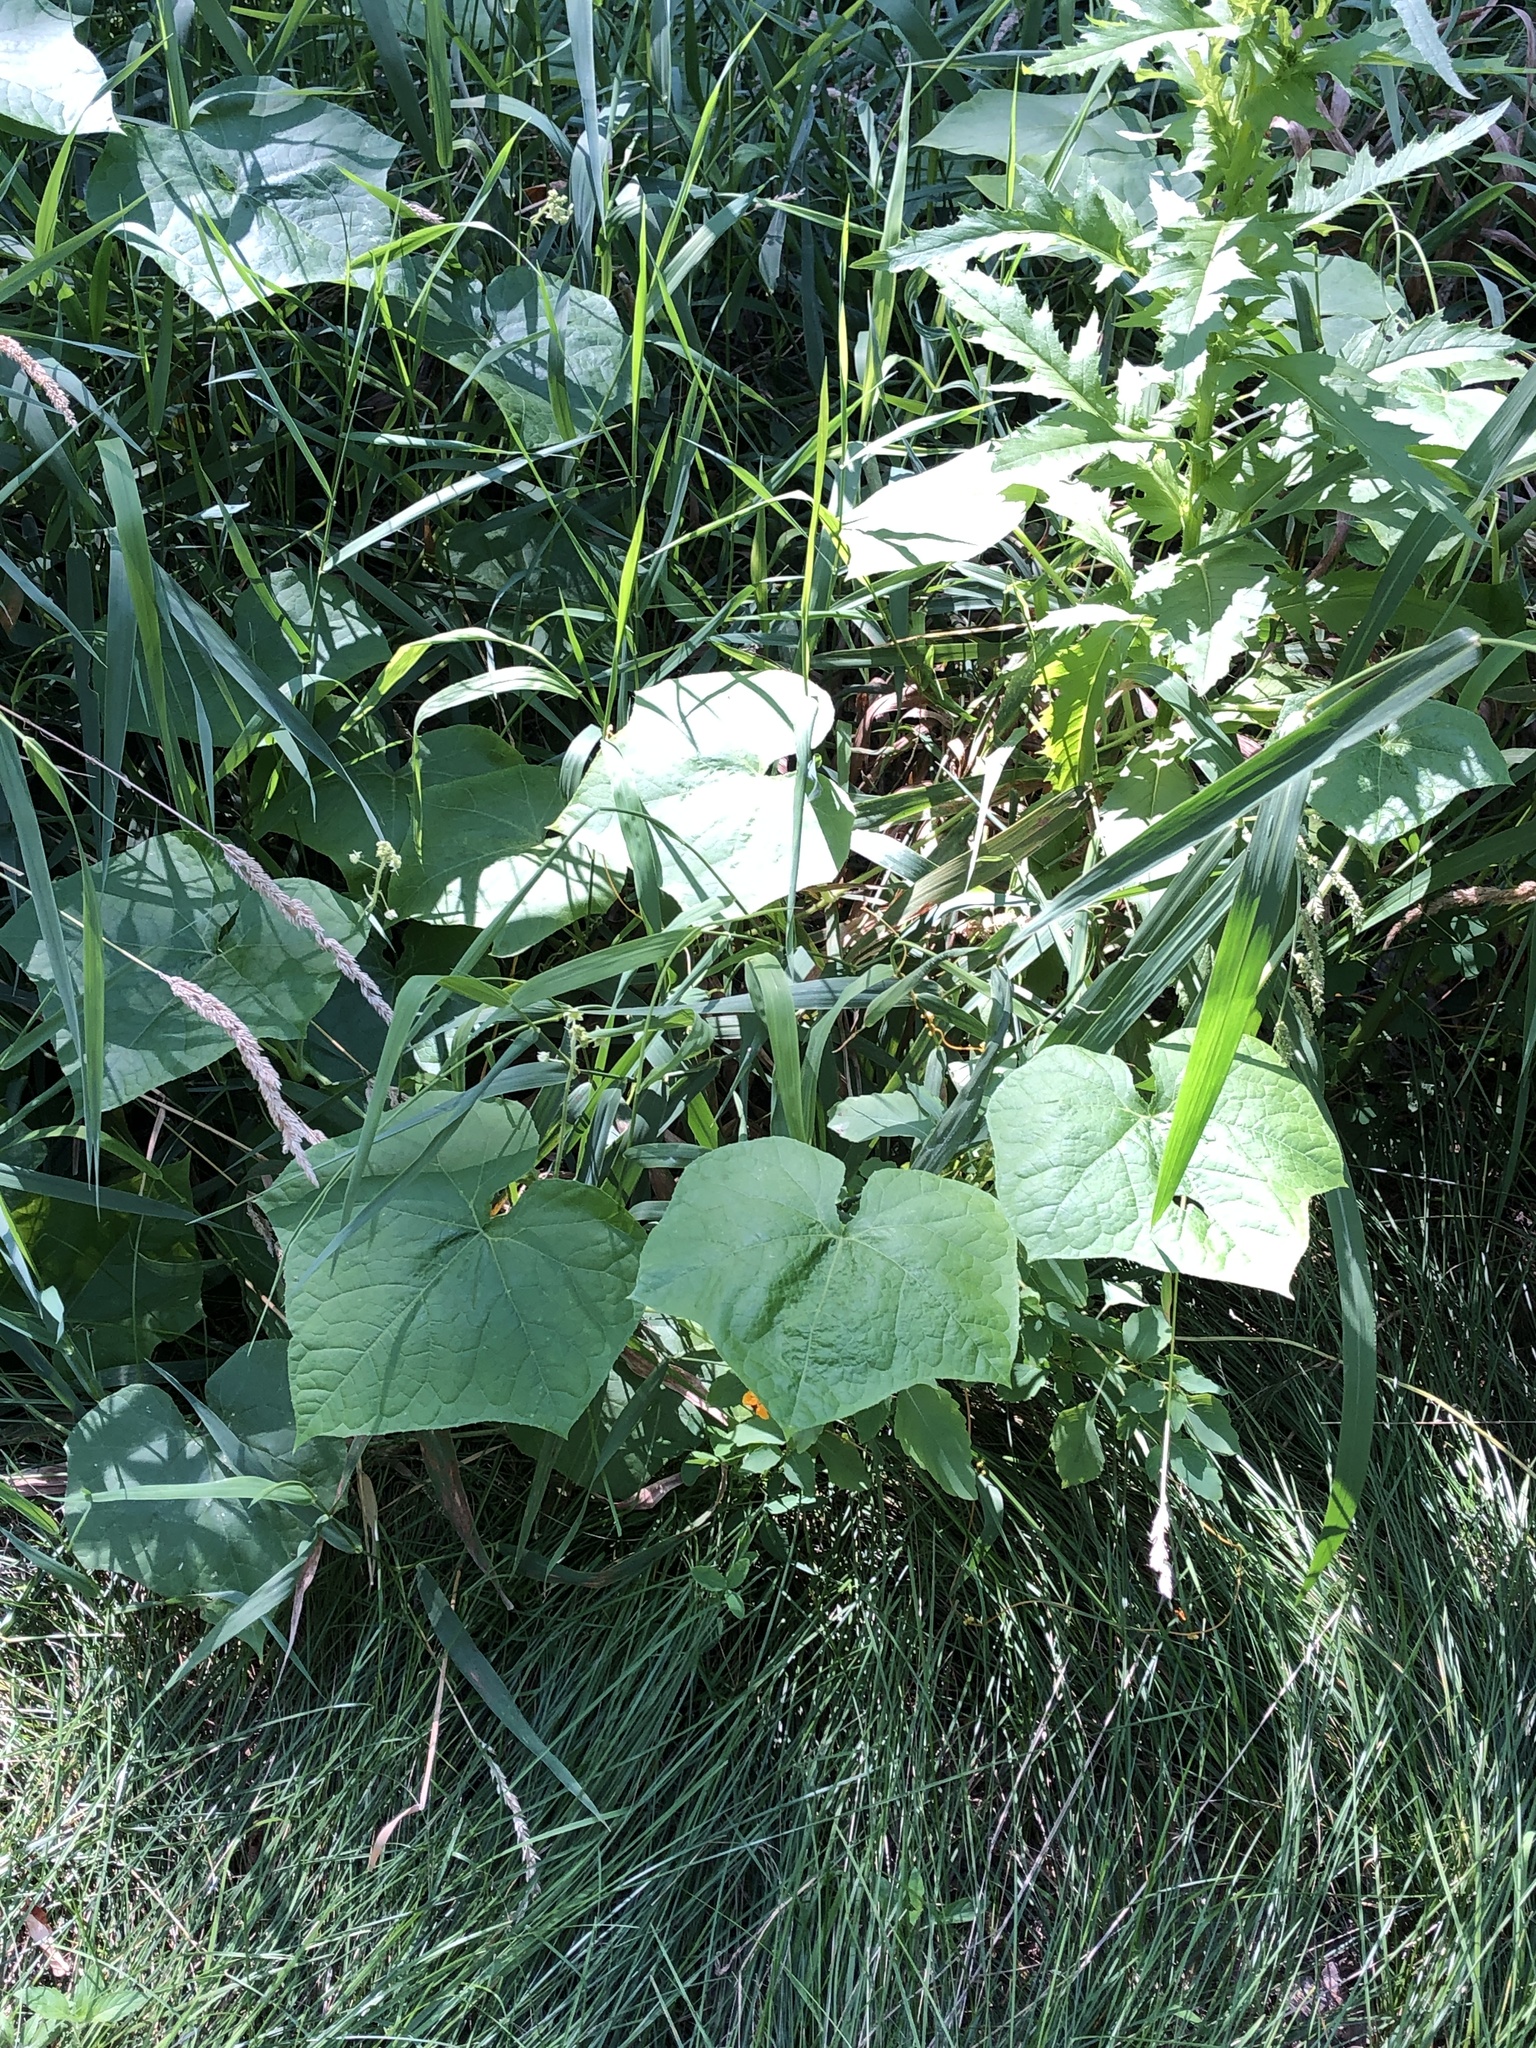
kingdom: Plantae
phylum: Tracheophyta
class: Magnoliopsida
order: Cucurbitales
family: Cucurbitaceae
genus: Sicyos
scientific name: Sicyos angulatus
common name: Angled burr cucumber
